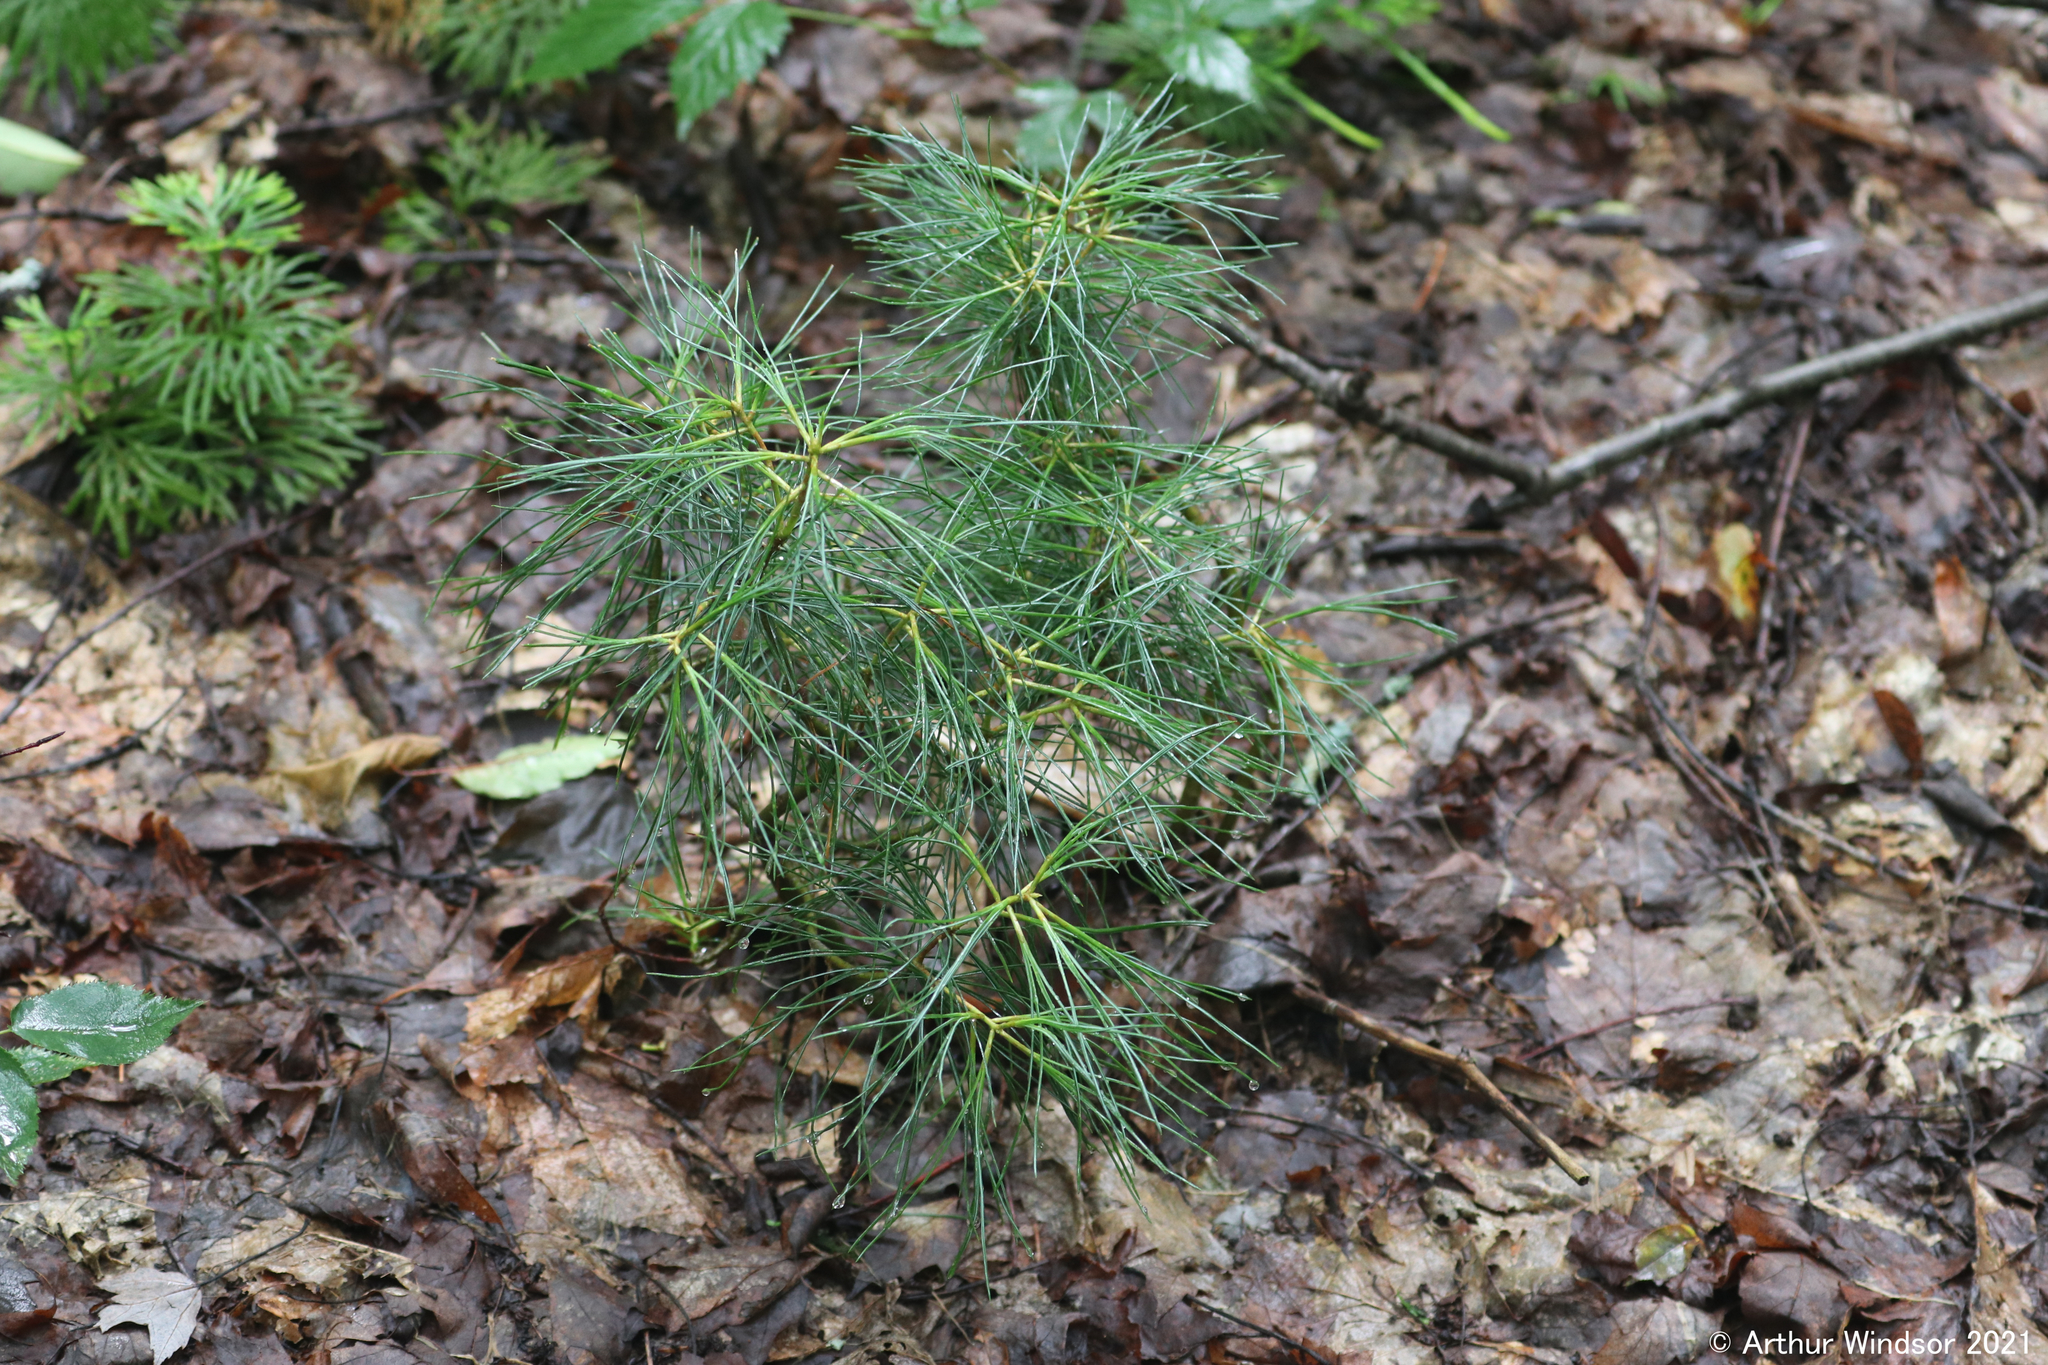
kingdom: Plantae
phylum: Tracheophyta
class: Pinopsida
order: Pinales
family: Pinaceae
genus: Pinus
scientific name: Pinus strobus
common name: Weymouth pine
